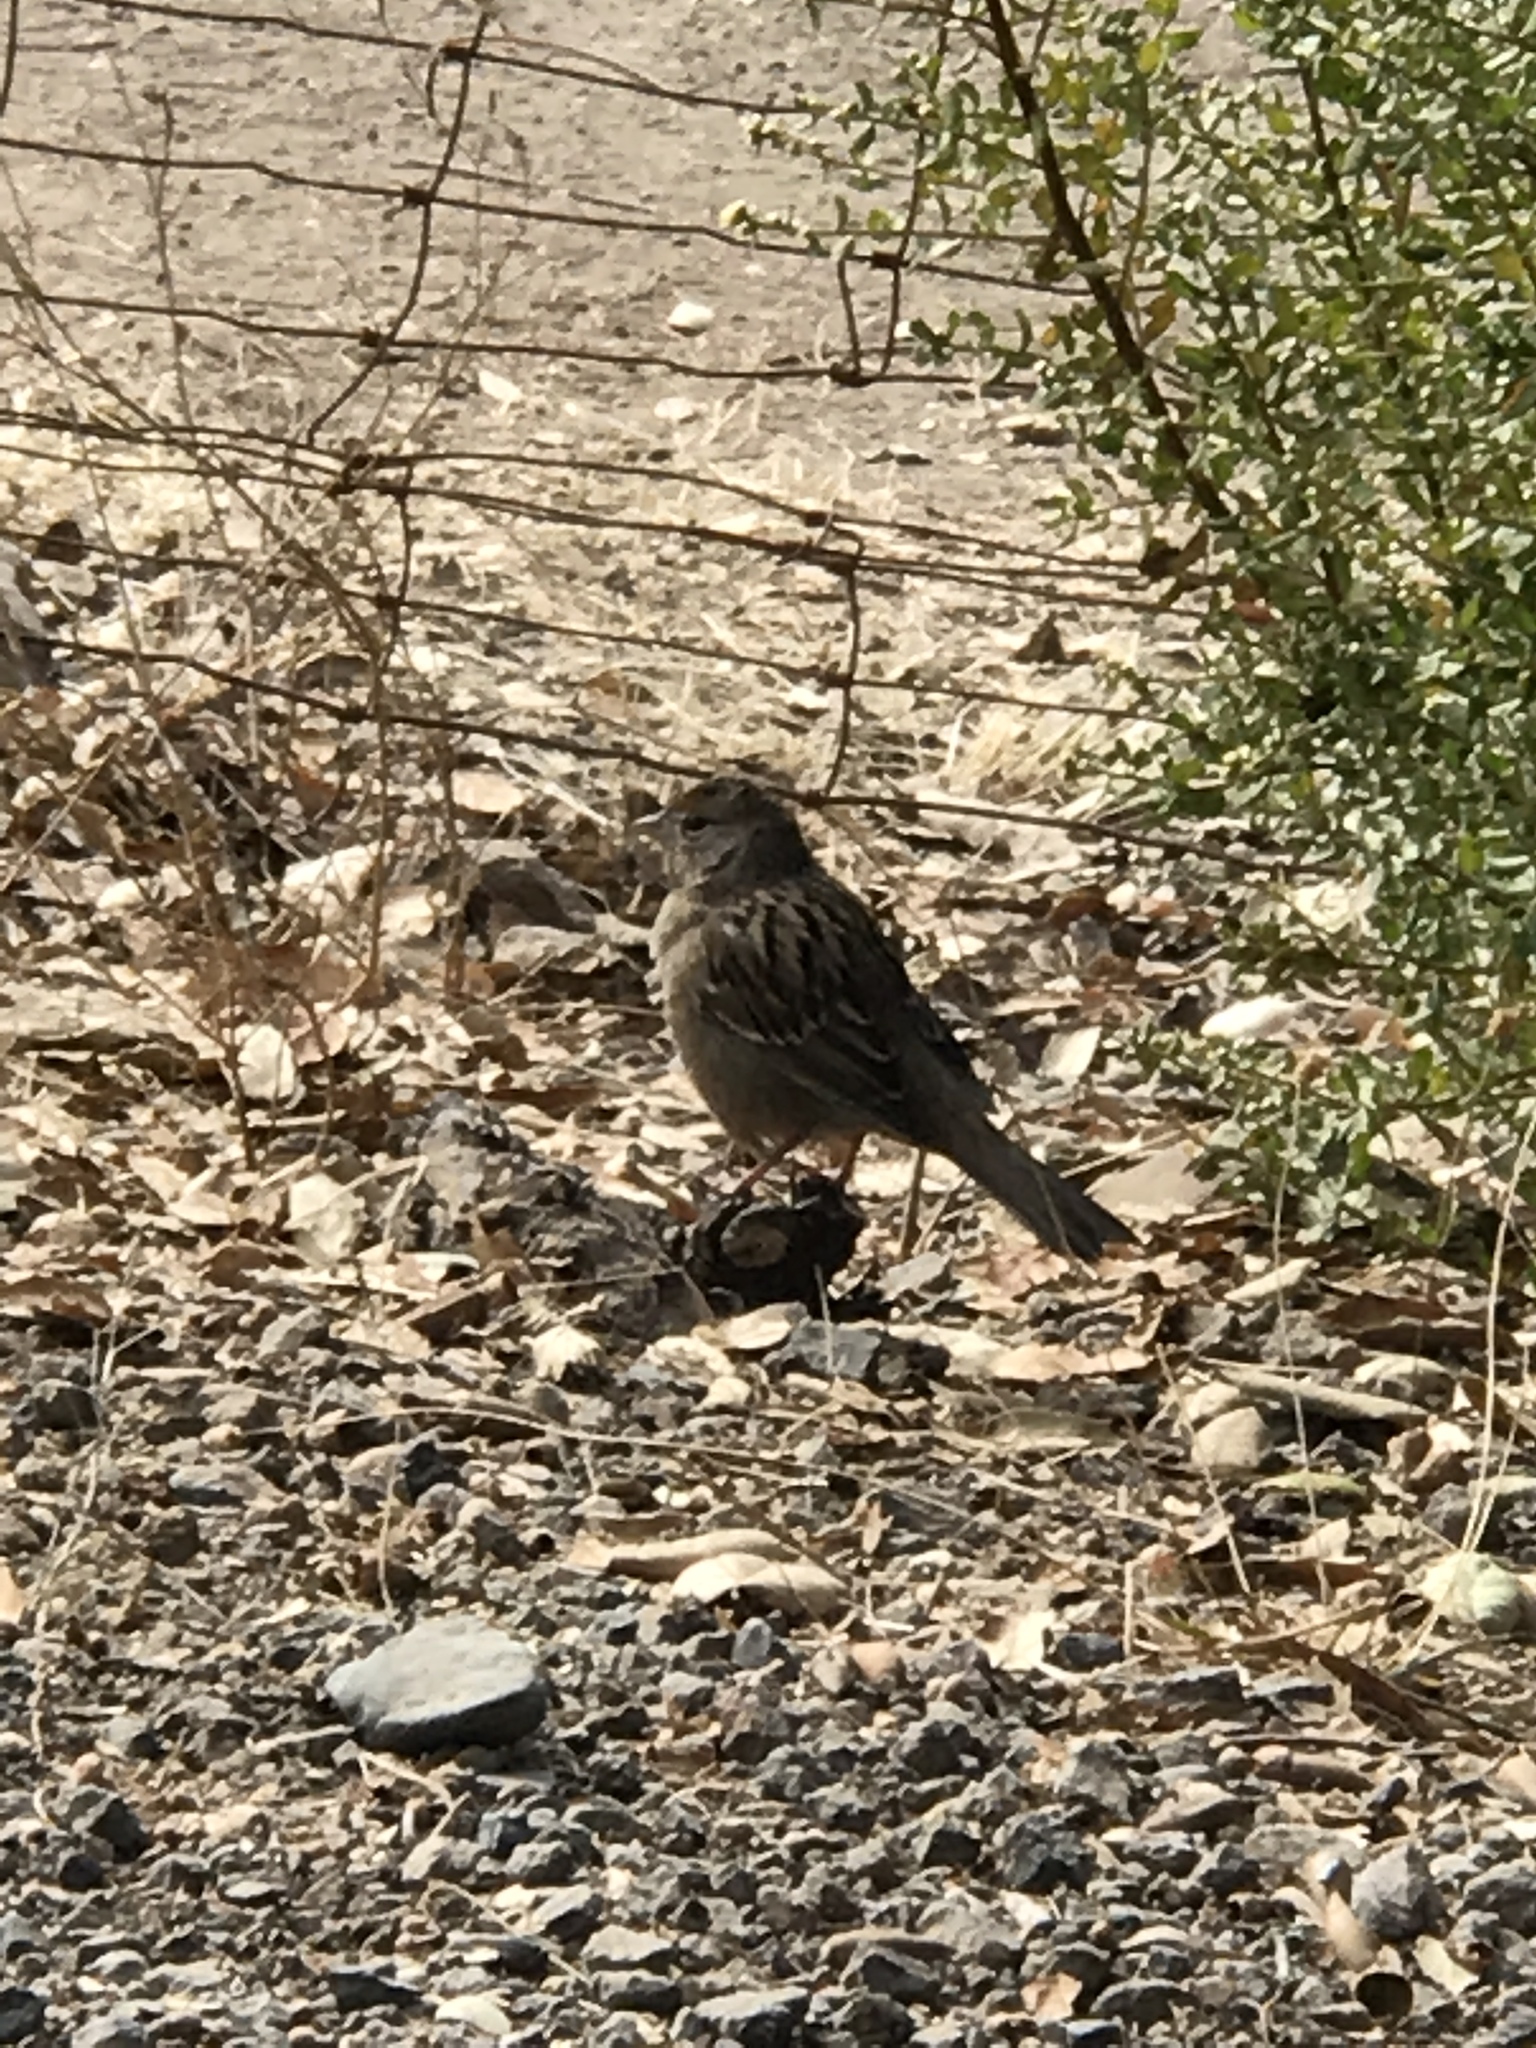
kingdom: Animalia
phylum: Chordata
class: Aves
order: Passeriformes
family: Passerellidae
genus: Zonotrichia
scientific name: Zonotrichia atricapilla
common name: Golden-crowned sparrow
